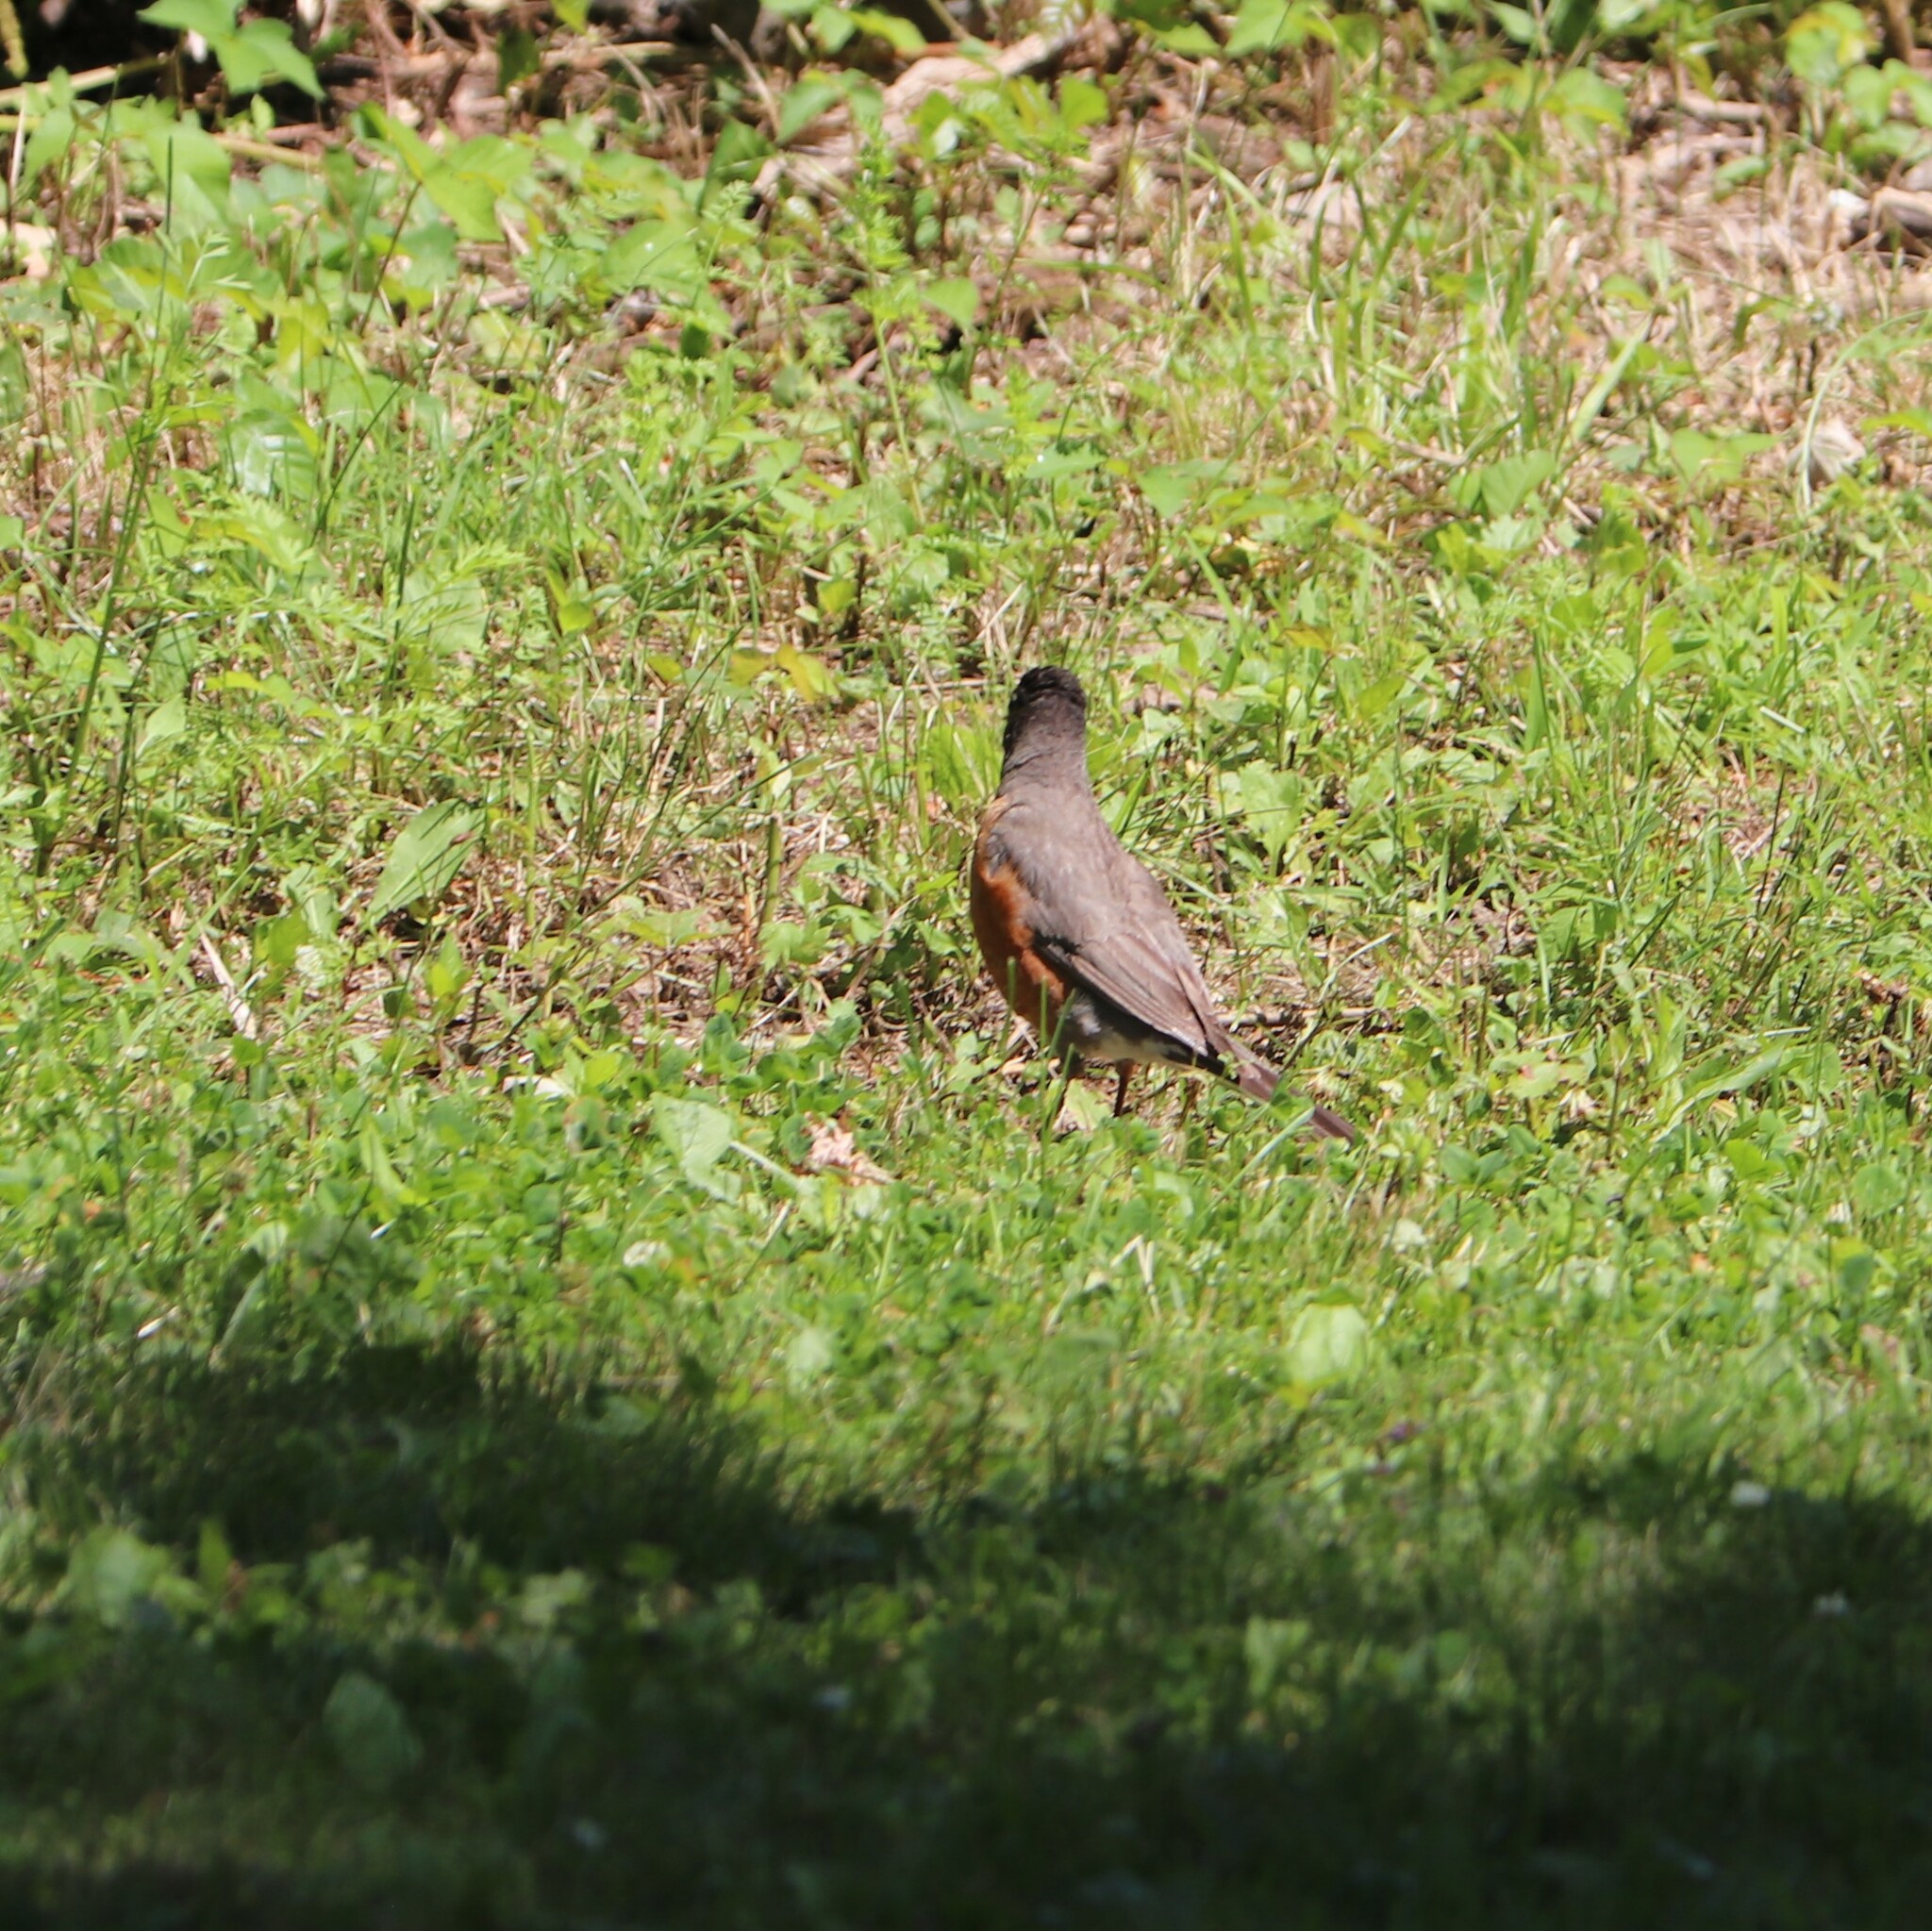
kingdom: Animalia
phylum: Chordata
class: Aves
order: Passeriformes
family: Turdidae
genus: Turdus
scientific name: Turdus migratorius
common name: American robin
